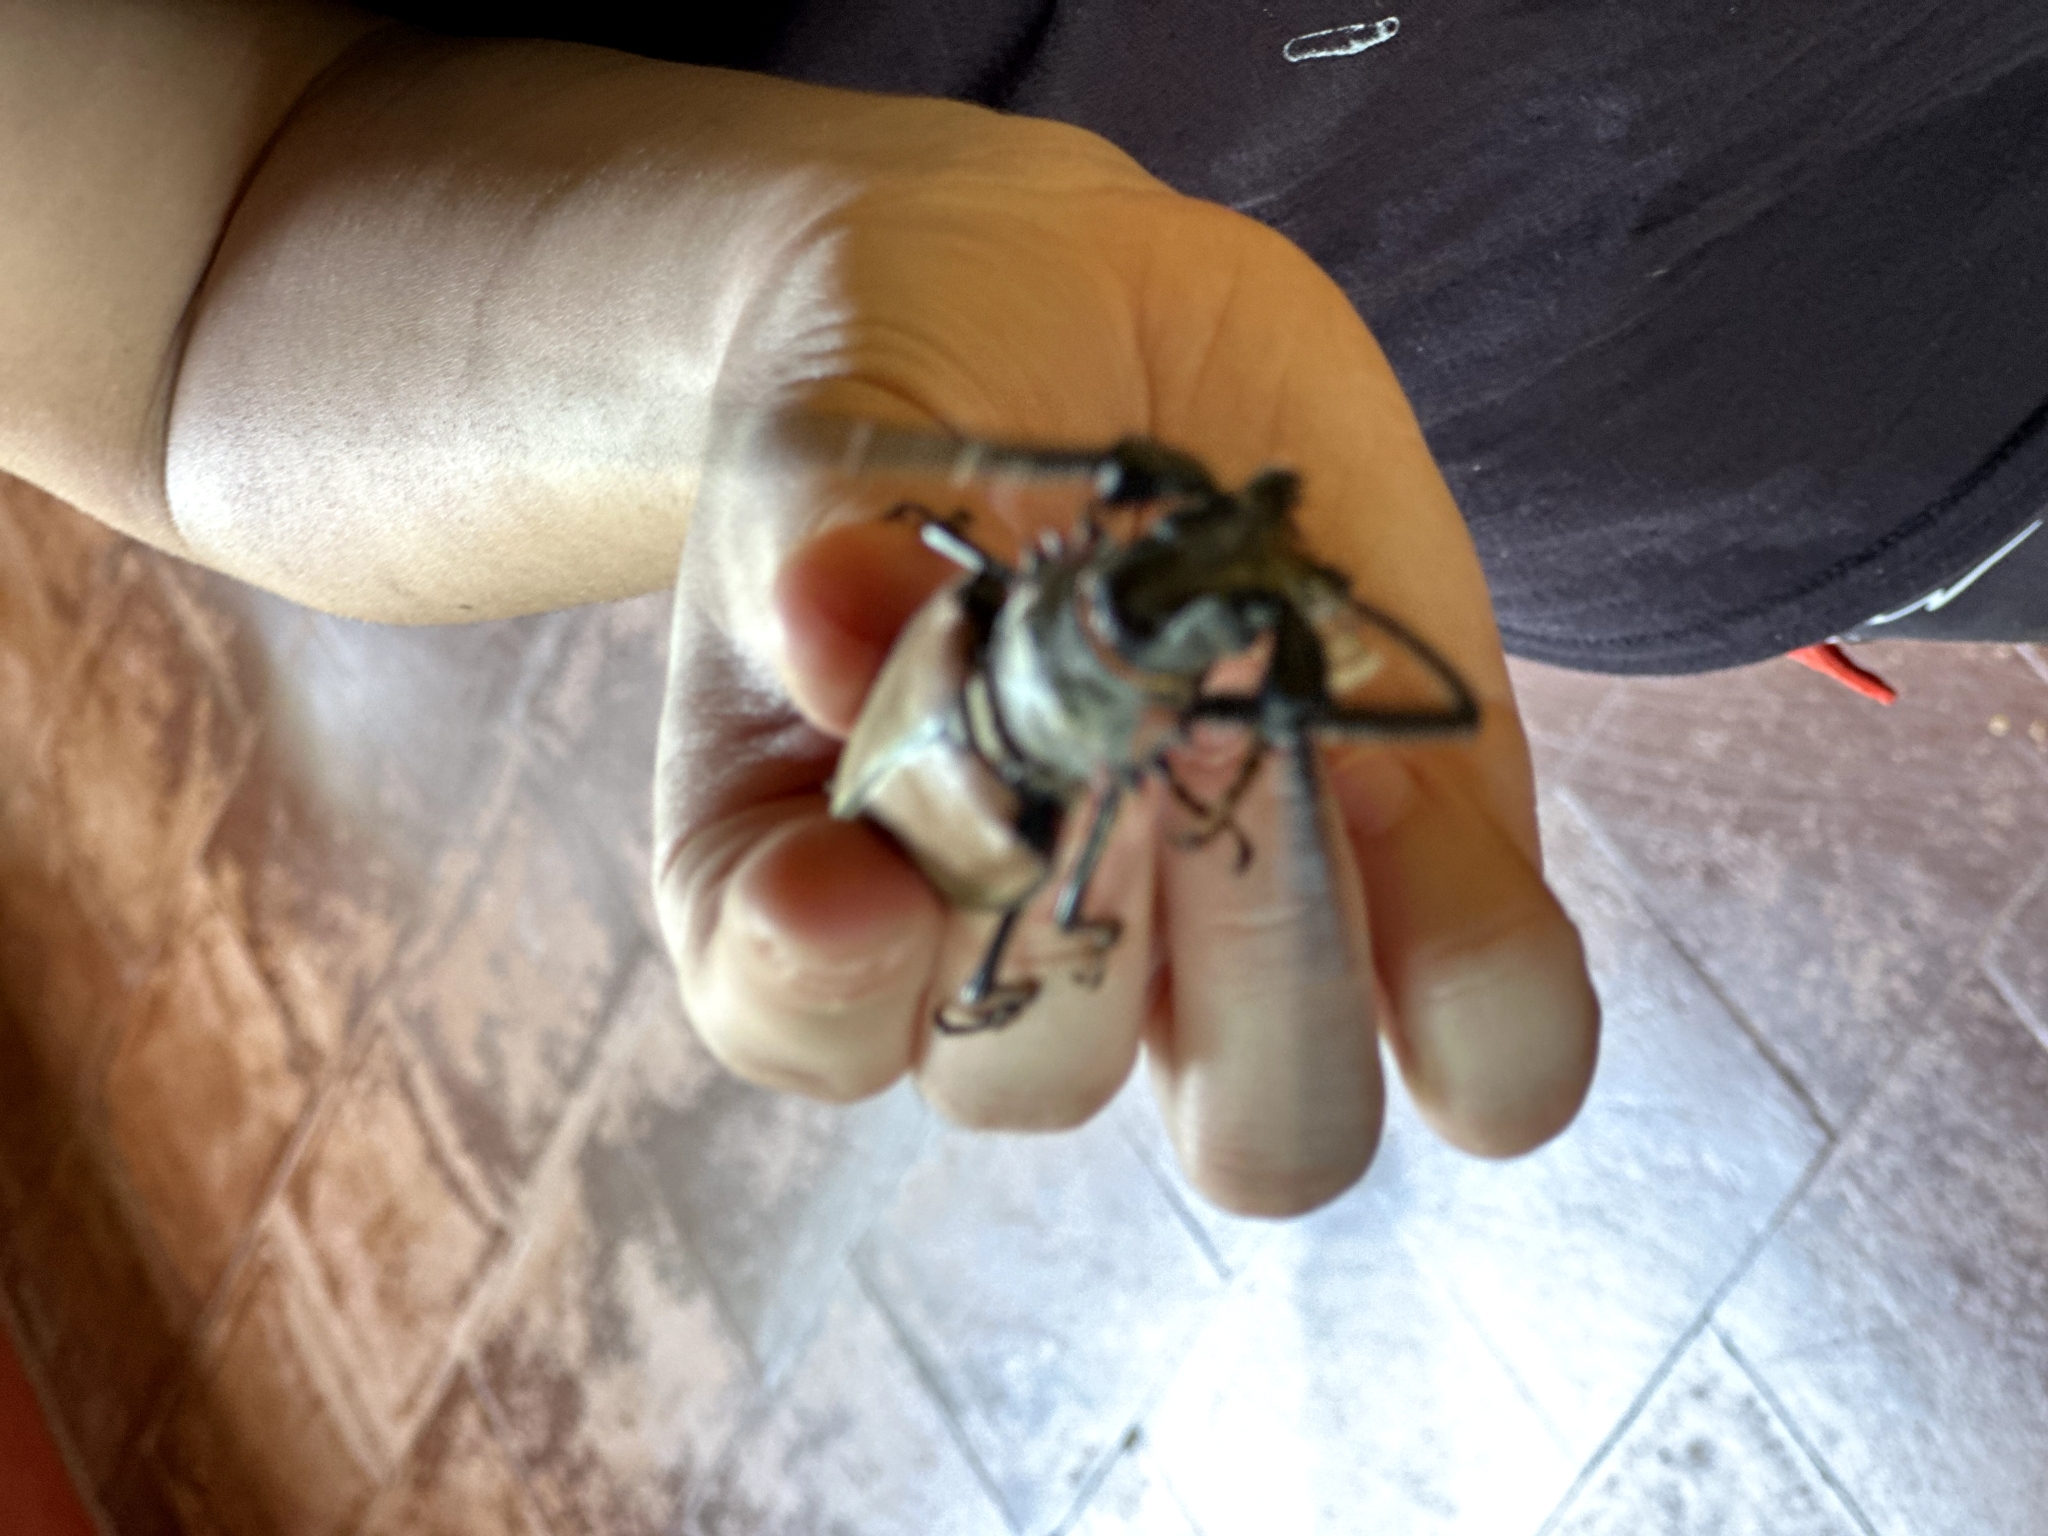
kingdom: Animalia
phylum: Arthropoda
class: Insecta
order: Coleoptera
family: Cerambycidae
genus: Enoplocerus
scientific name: Enoplocerus armillatus
